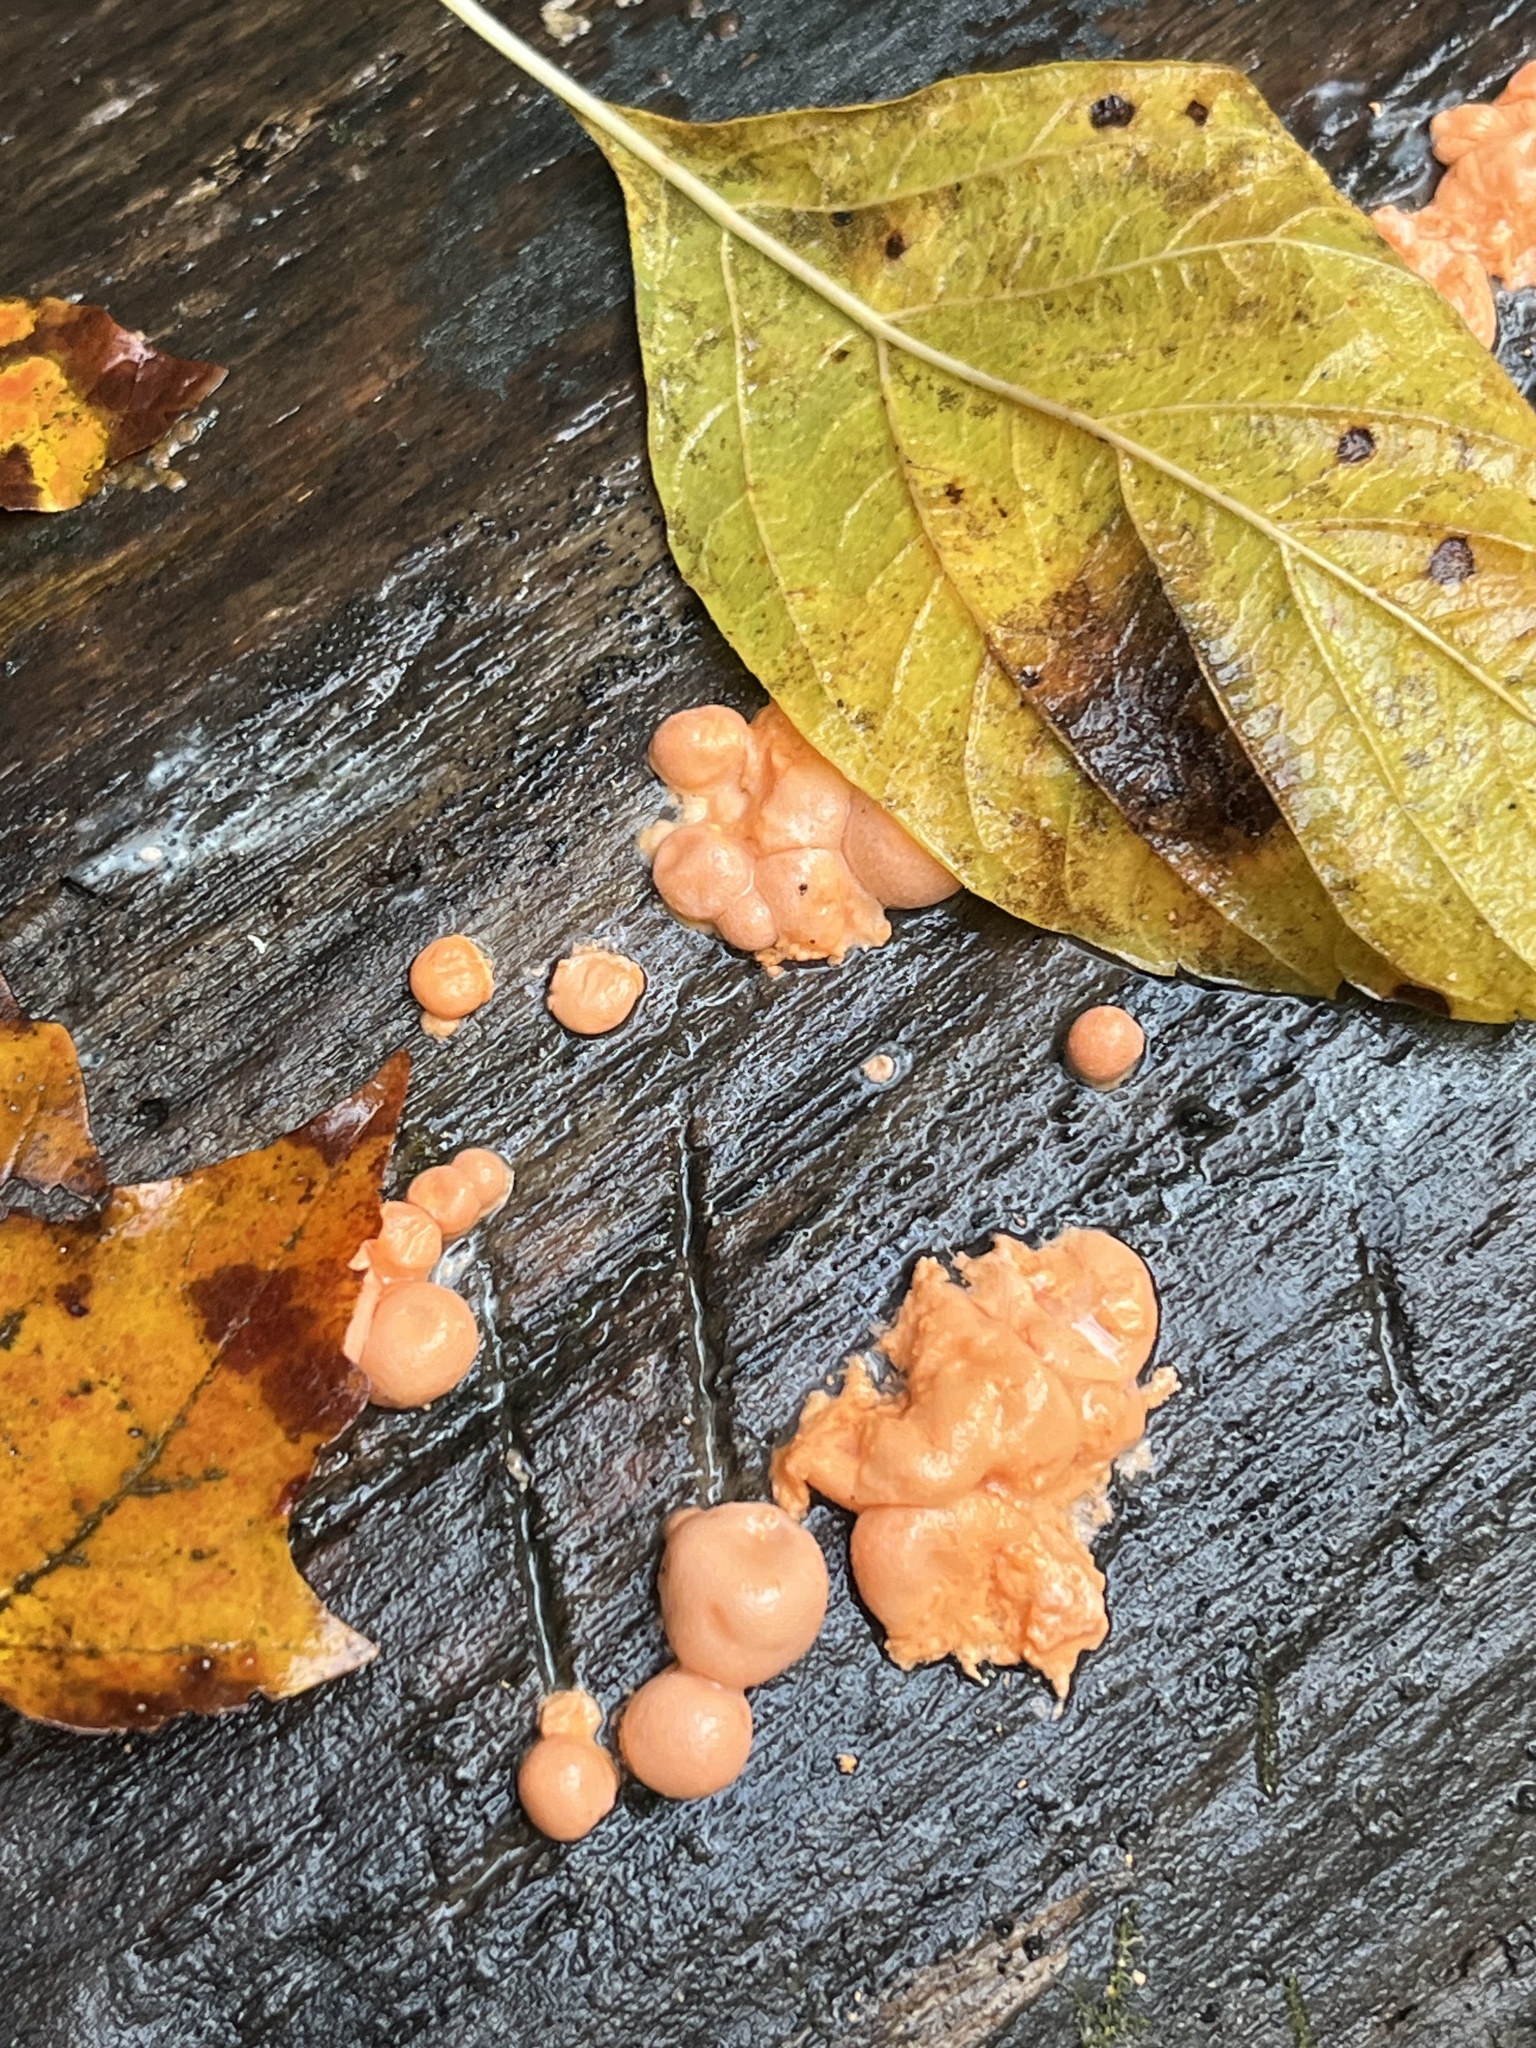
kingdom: Protozoa
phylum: Mycetozoa
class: Myxomycetes
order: Cribrariales
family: Tubiferaceae
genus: Lycogala
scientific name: Lycogala epidendrum
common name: Wolf's milk
